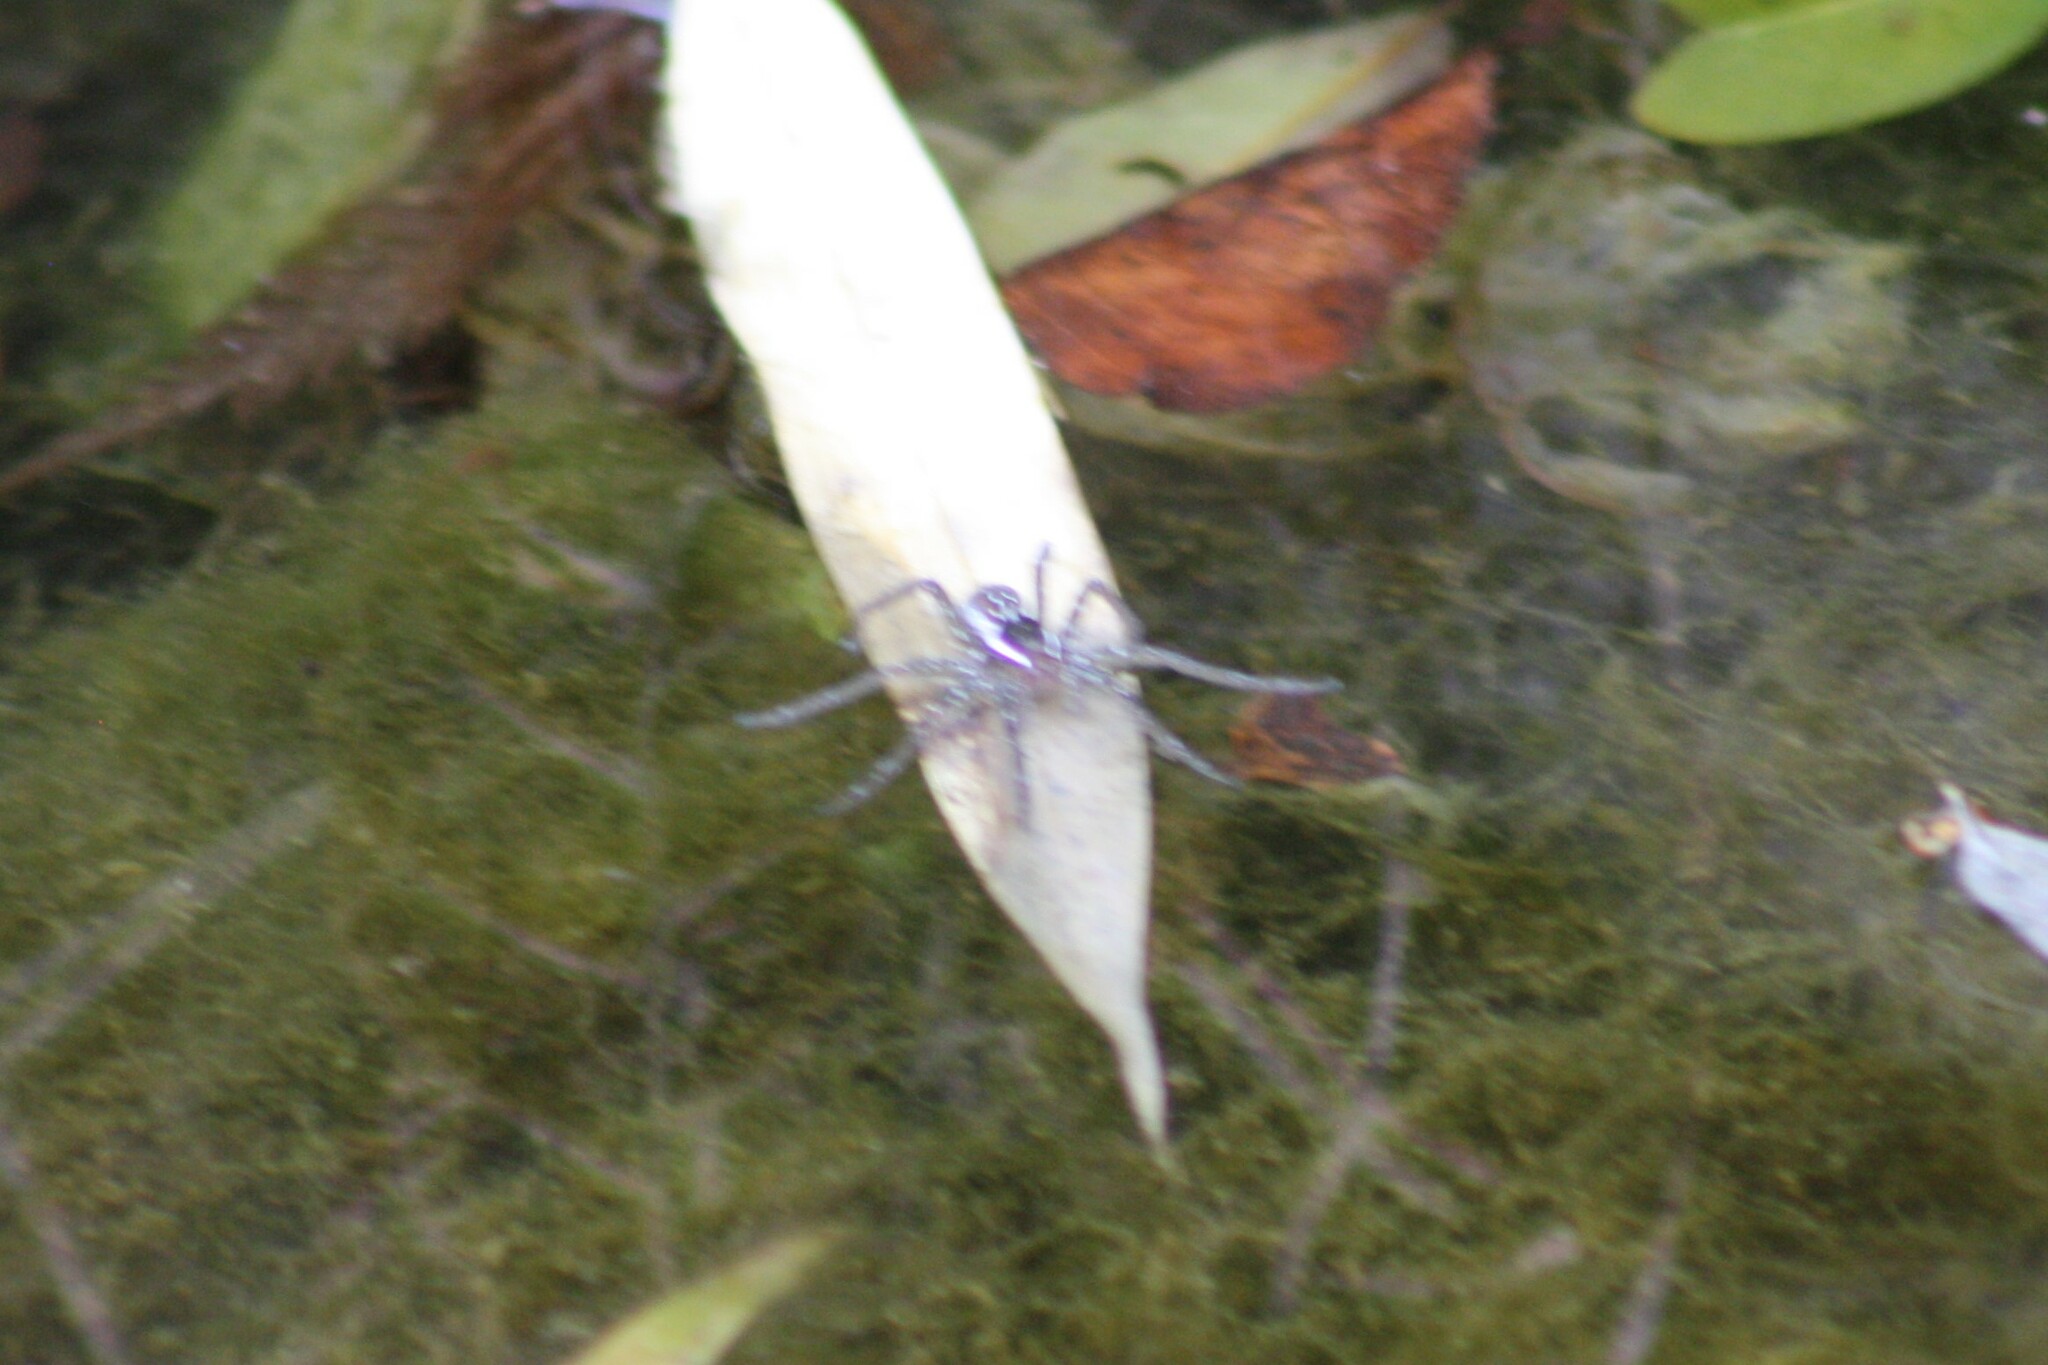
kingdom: Animalia
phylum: Arthropoda
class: Arachnida
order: Araneae
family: Pisauridae
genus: Dolomedes
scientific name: Dolomedes triton
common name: Six-spotted fishing spider
